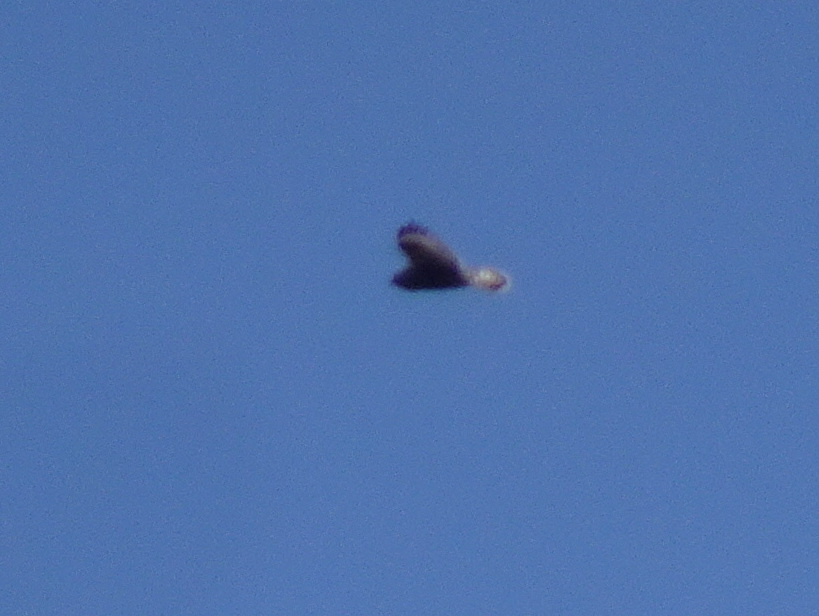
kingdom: Animalia
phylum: Chordata
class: Aves
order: Accipitriformes
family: Accipitridae
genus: Buteo
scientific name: Buteo lagopus
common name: Rough-legged buzzard
